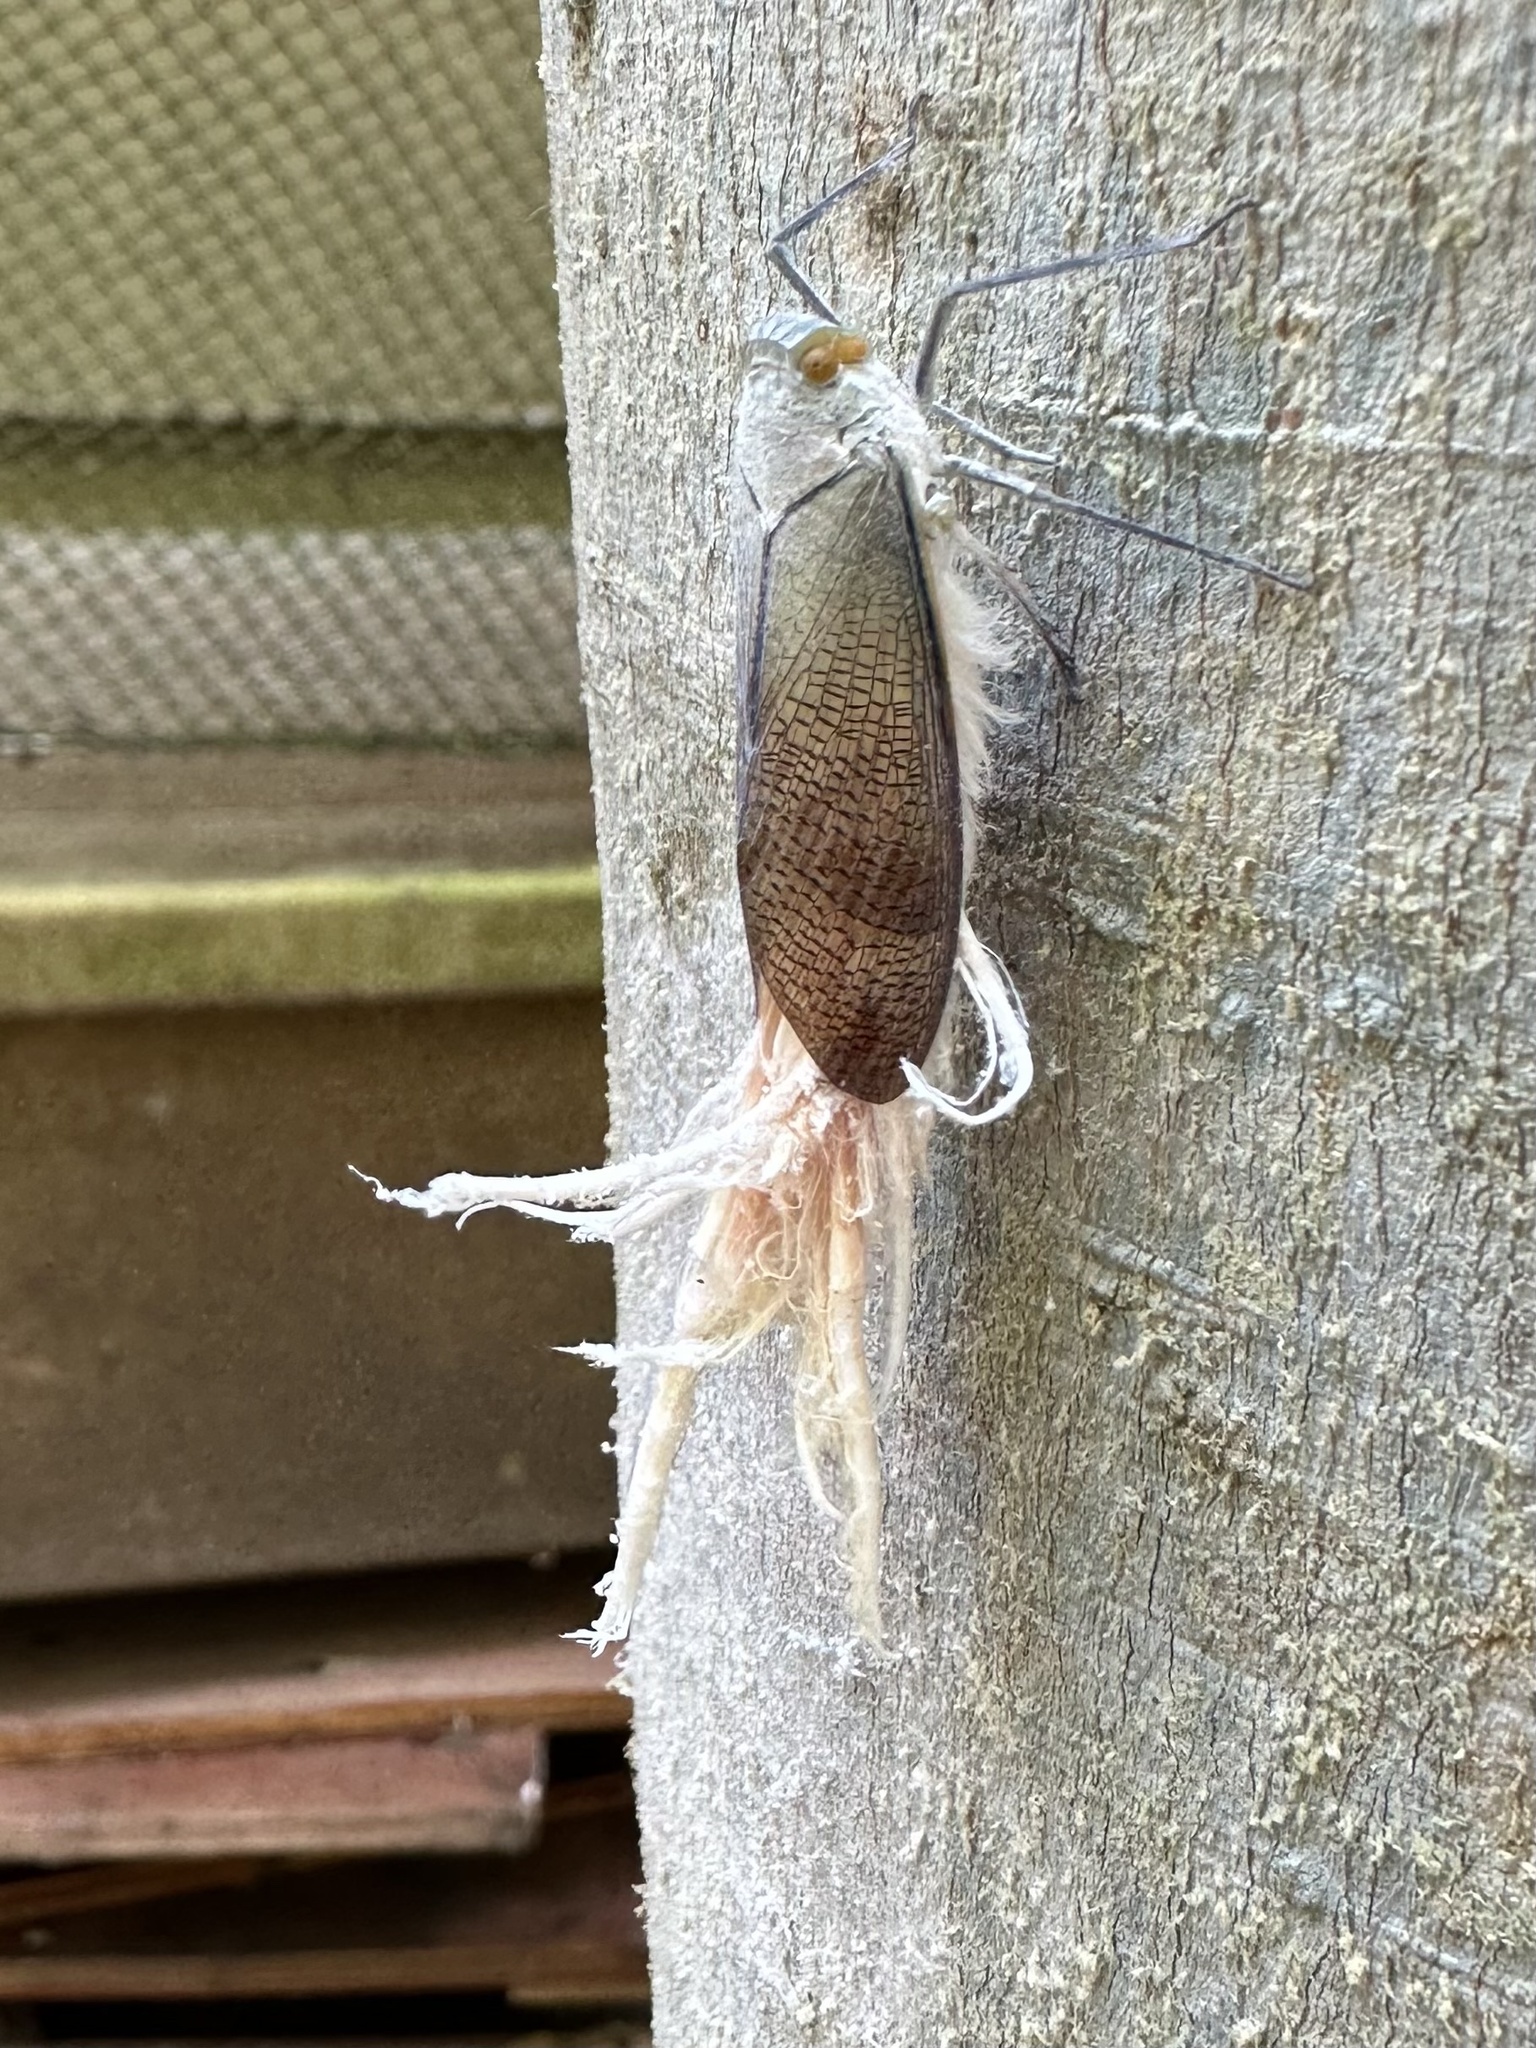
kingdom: Animalia
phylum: Arthropoda
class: Insecta
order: Hemiptera
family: Fulgoridae
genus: Pterodictya
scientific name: Pterodictya reticularis
